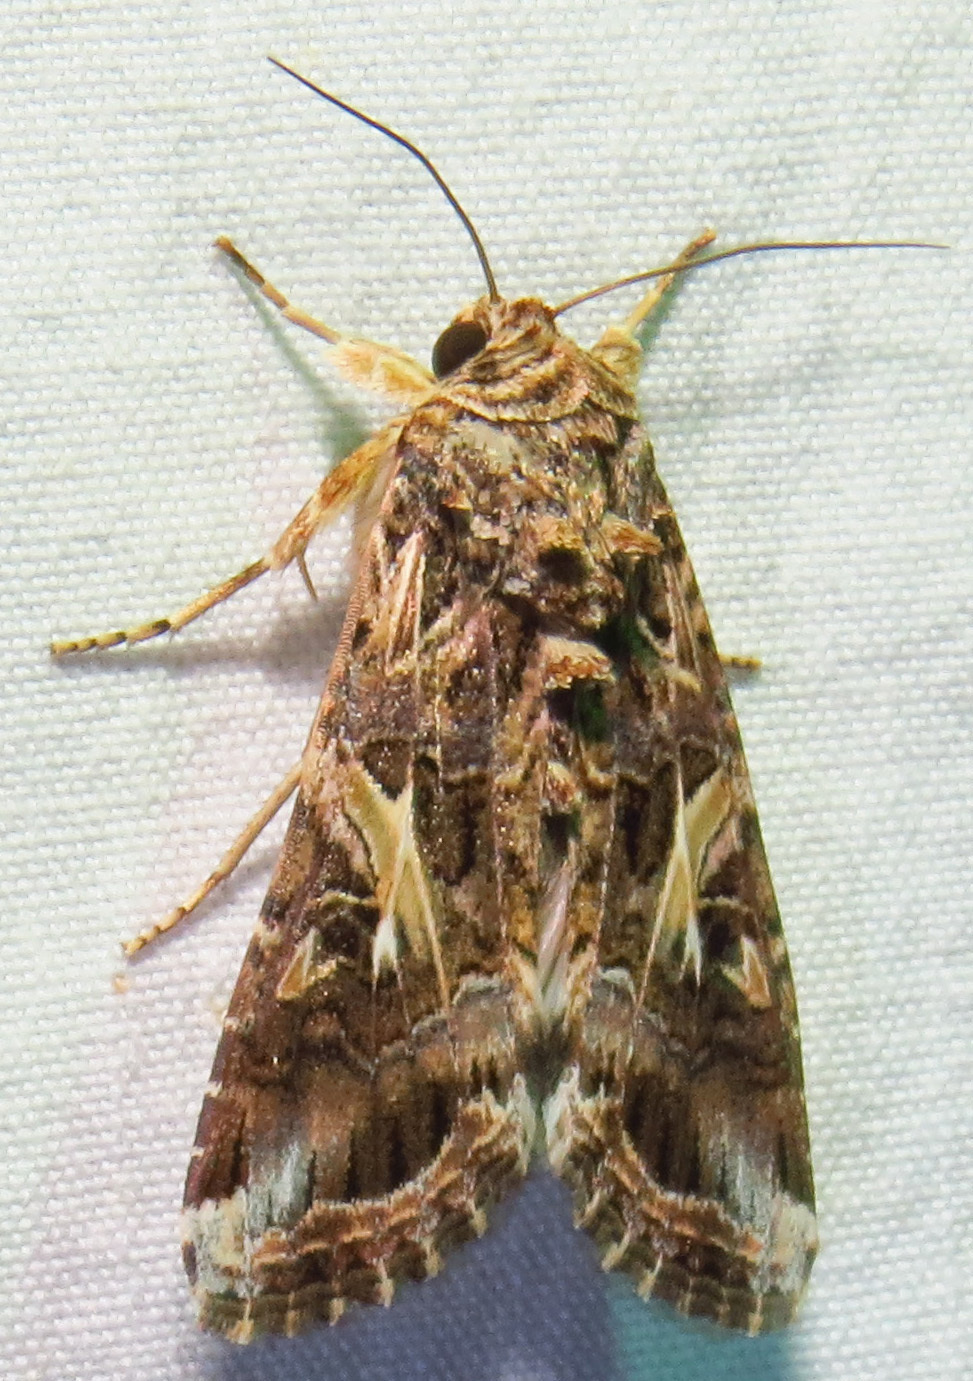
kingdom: Animalia
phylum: Arthropoda
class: Insecta
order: Lepidoptera
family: Noctuidae
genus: Spodoptera
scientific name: Spodoptera ornithogalli
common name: Yellow-striped armyworm
